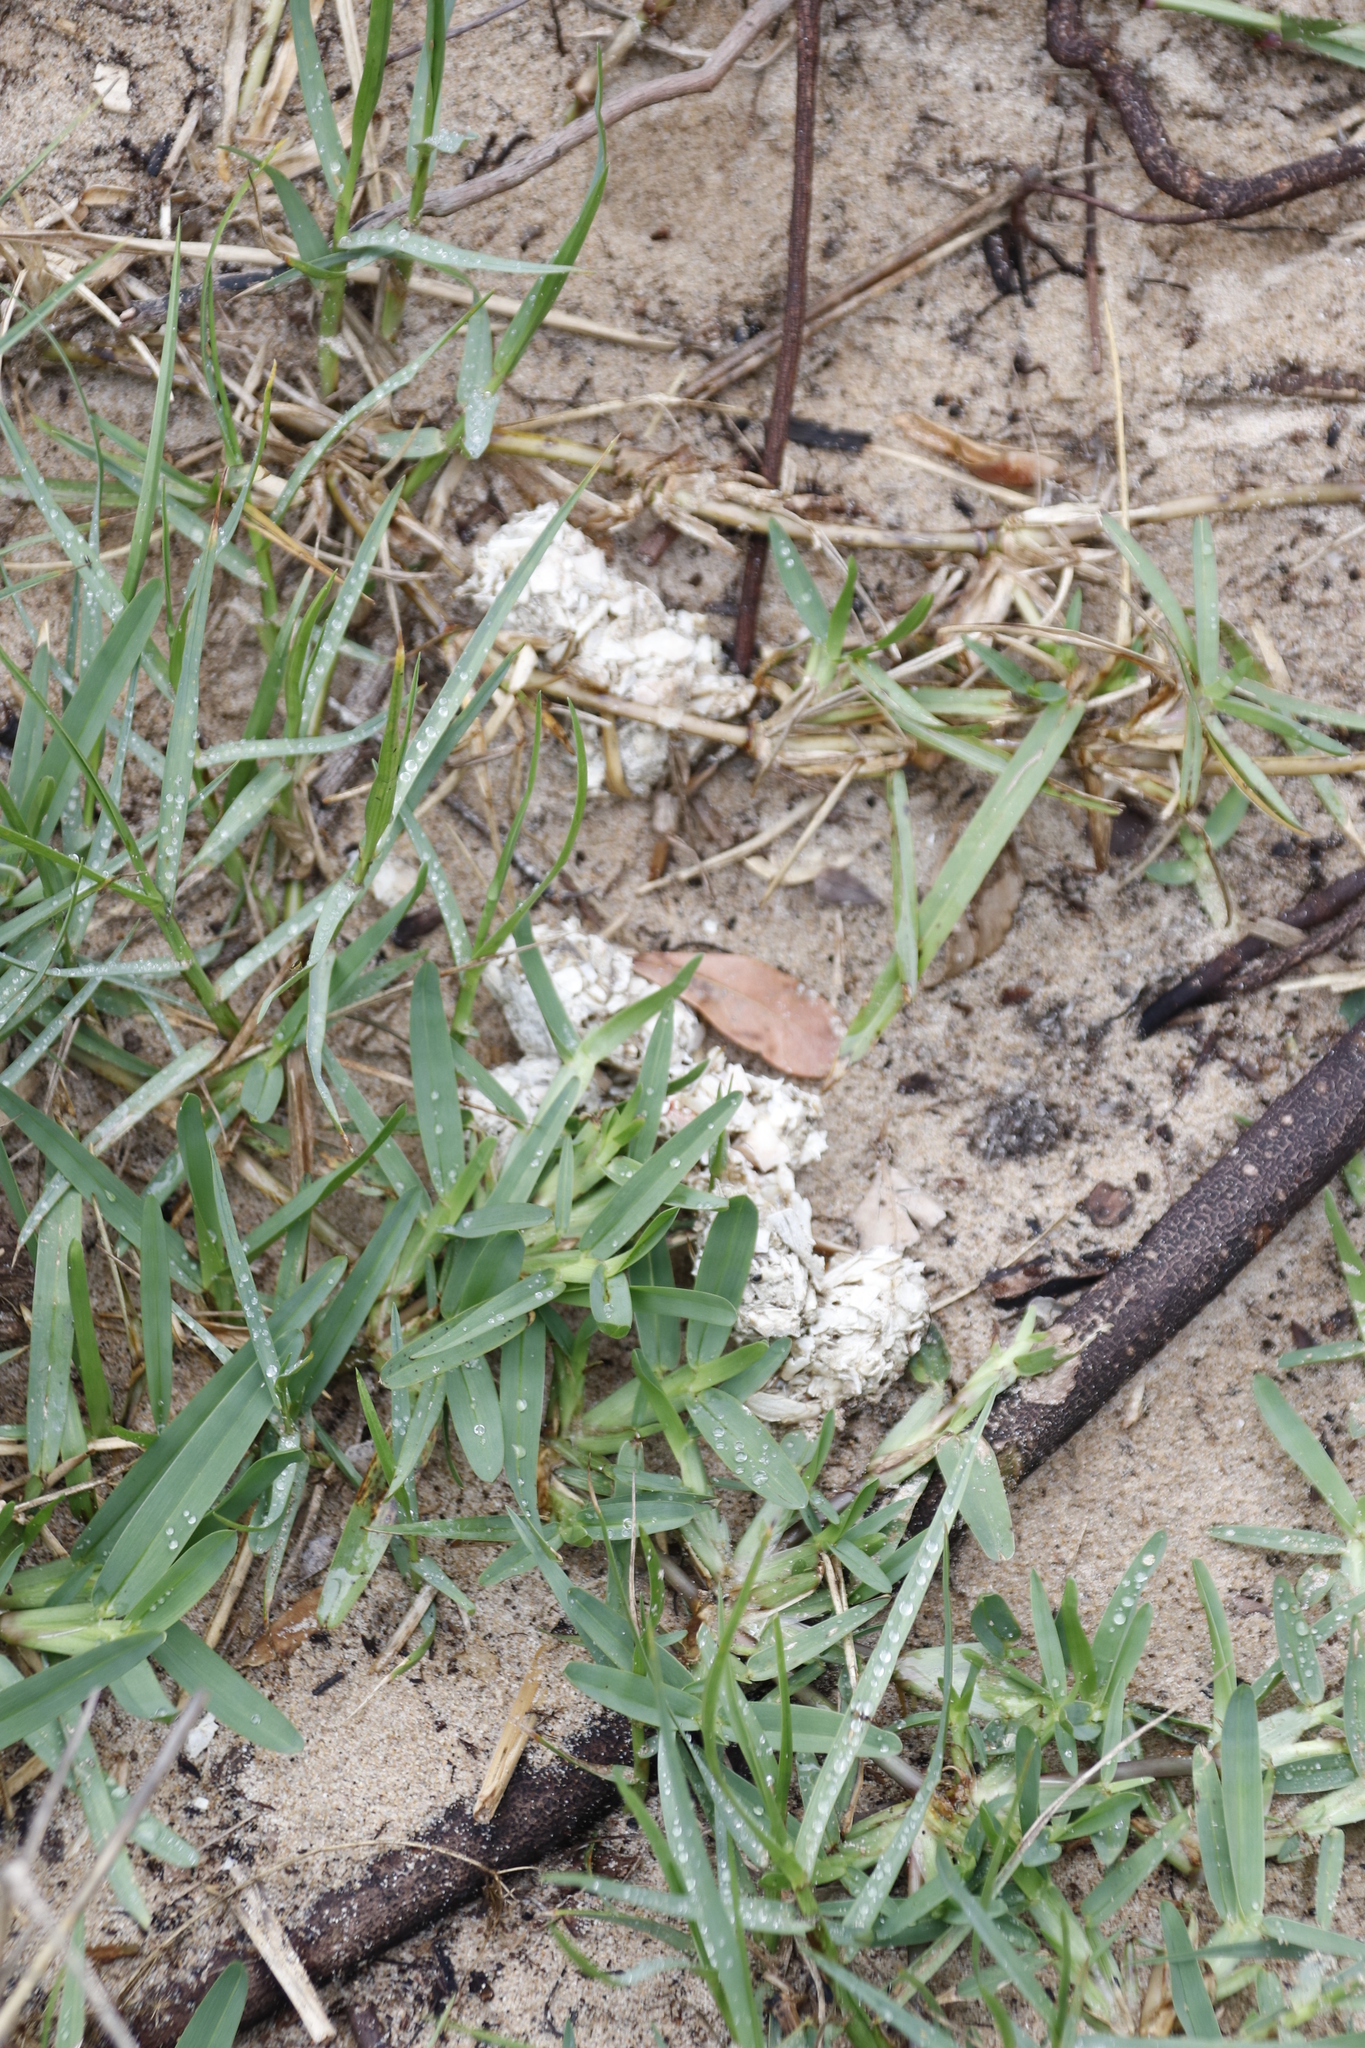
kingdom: Plantae
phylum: Tracheophyta
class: Liliopsida
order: Poales
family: Poaceae
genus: Stenotaphrum
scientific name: Stenotaphrum secundatum
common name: St. augustine grass
